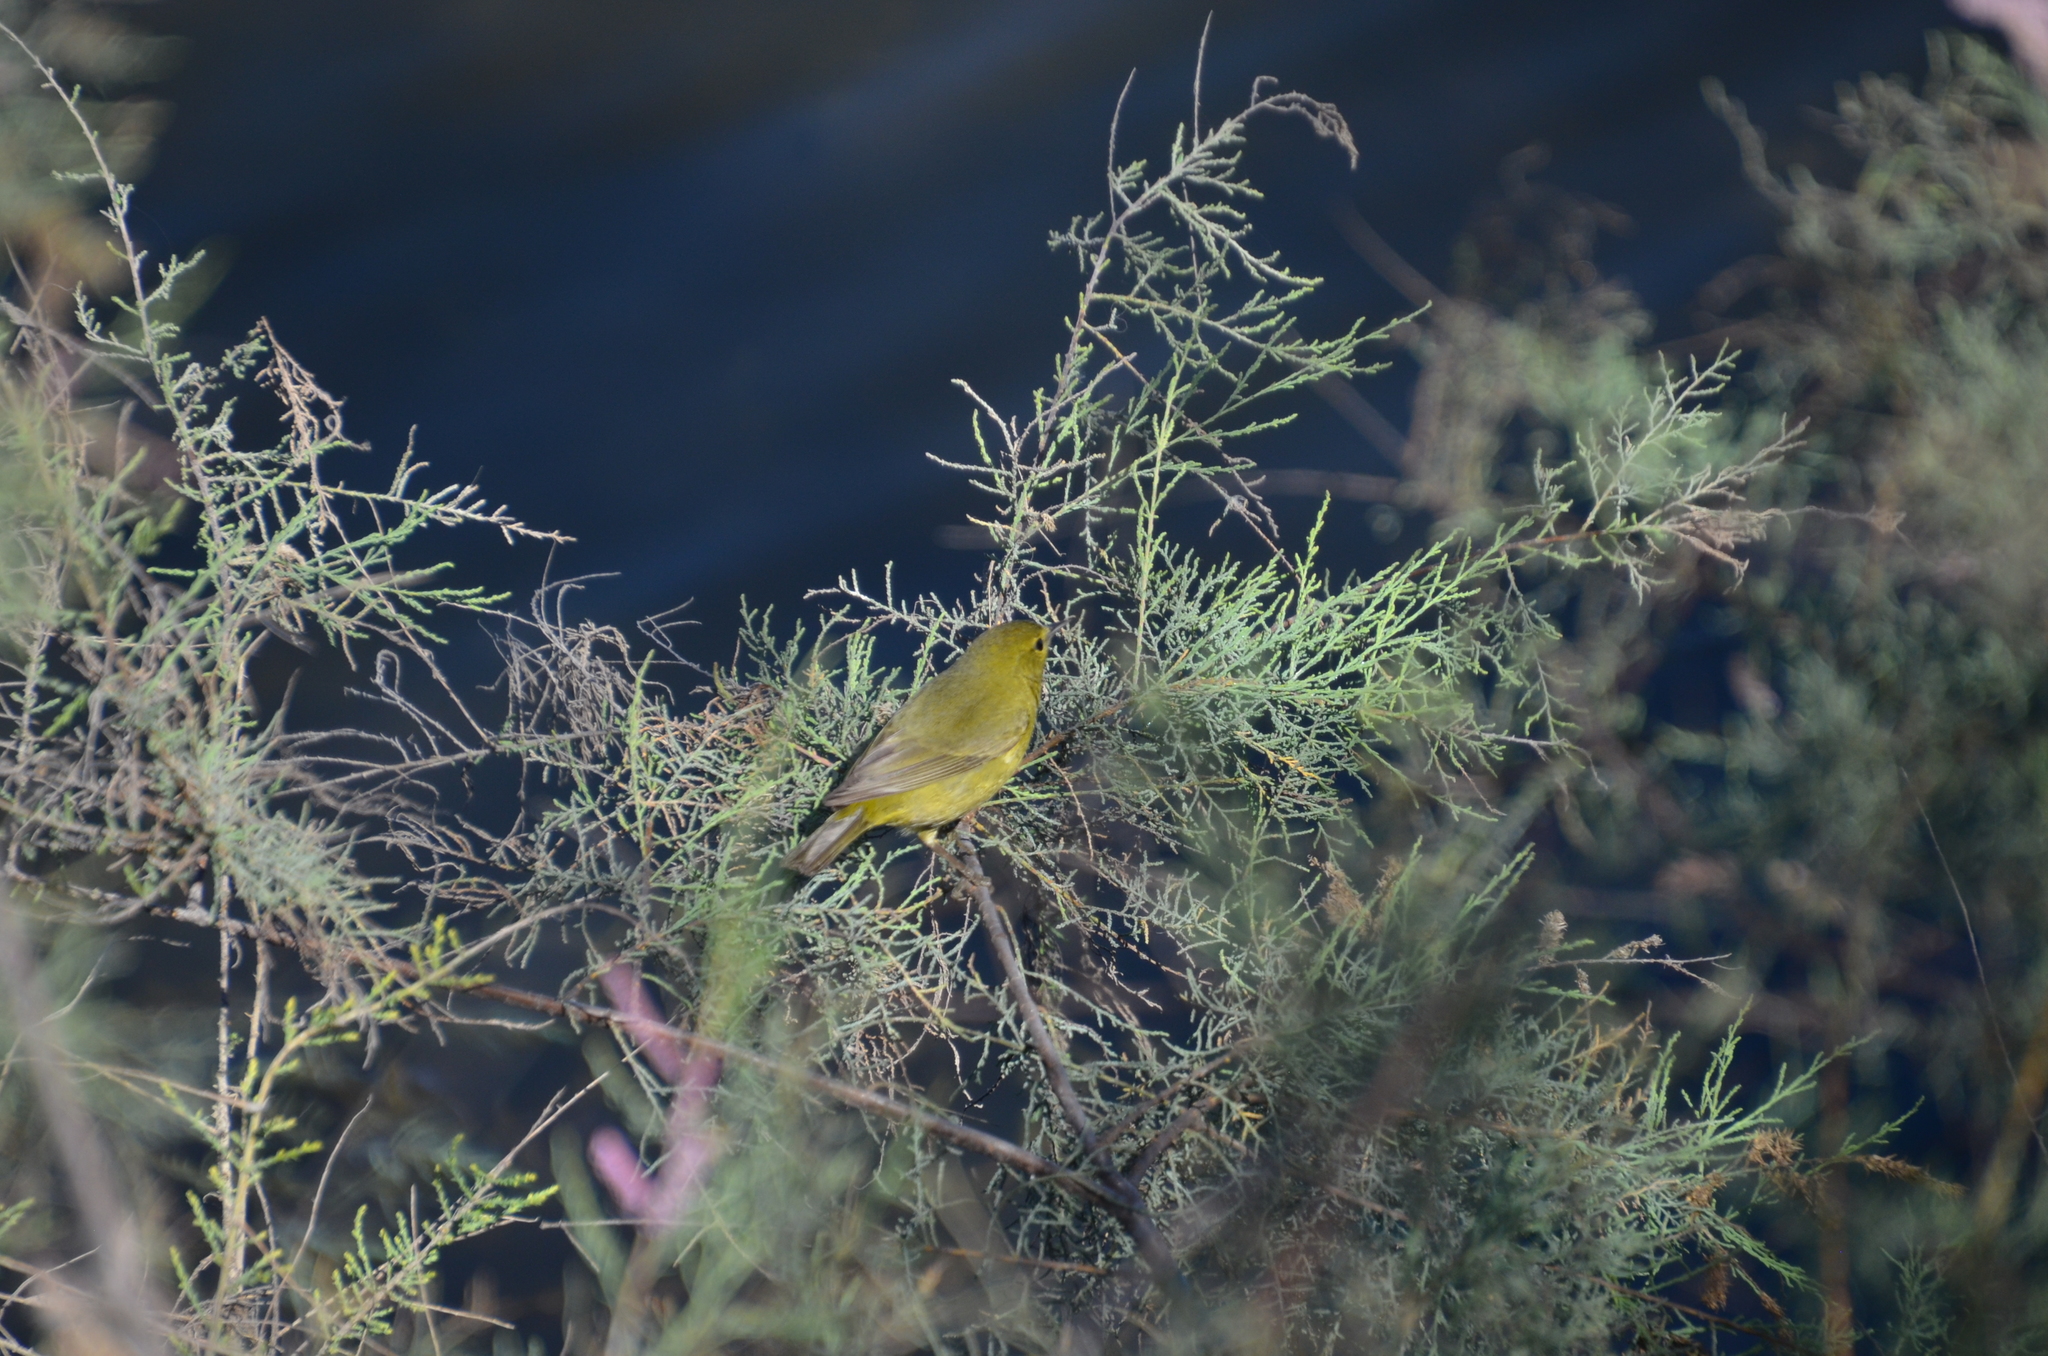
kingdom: Animalia
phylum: Chordata
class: Aves
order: Passeriformes
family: Parulidae
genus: Leiothlypis
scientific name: Leiothlypis celata
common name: Orange-crowned warbler
